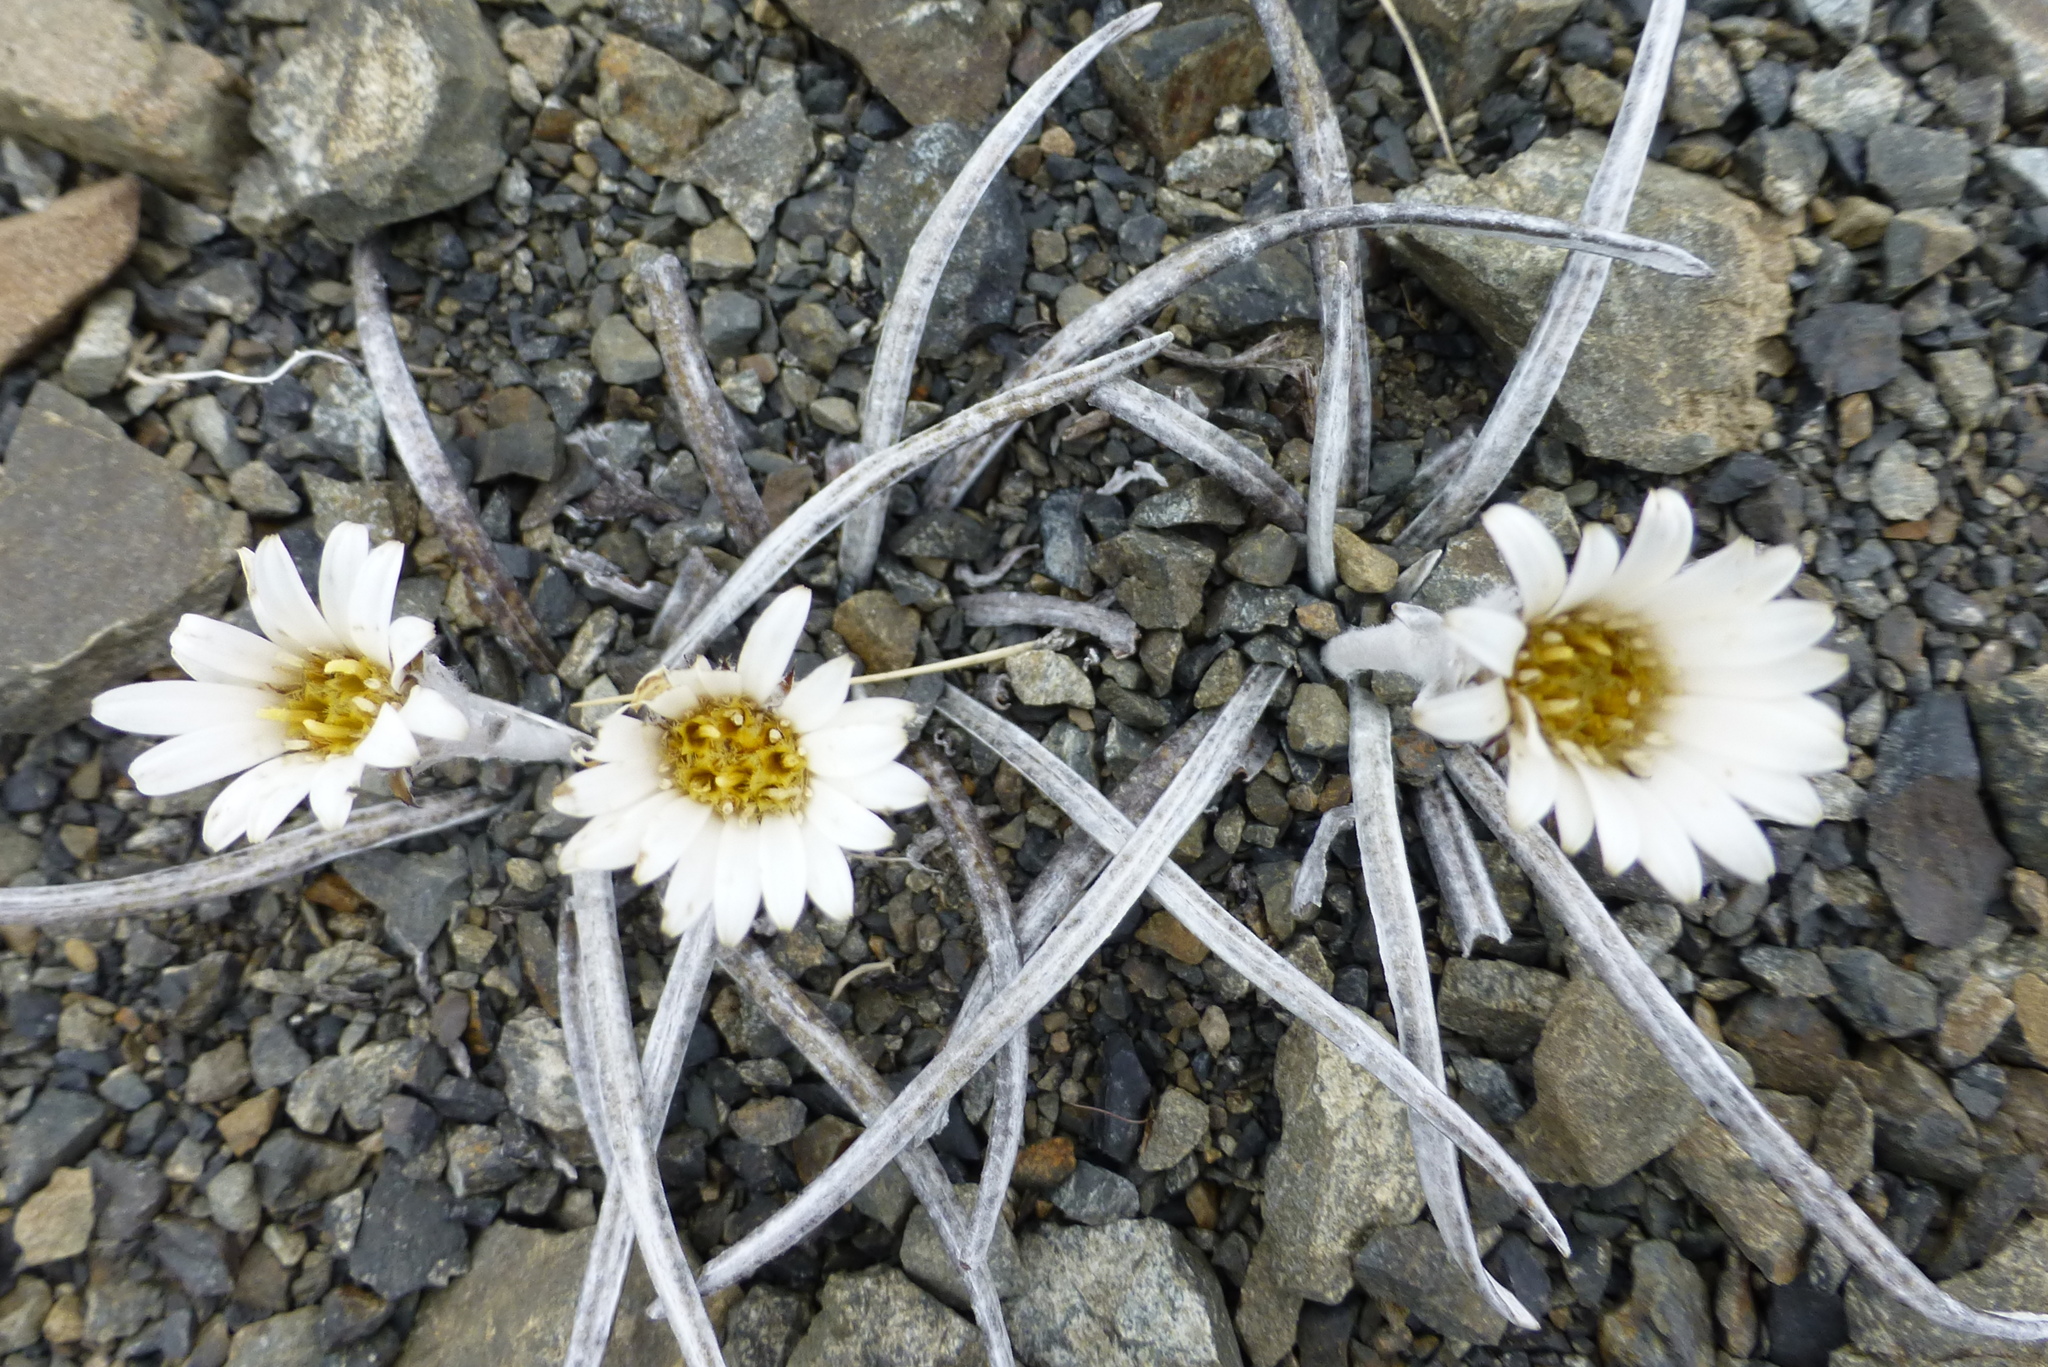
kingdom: Plantae
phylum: Tracheophyta
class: Magnoliopsida
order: Asterales
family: Asteraceae
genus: Celmisia
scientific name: Celmisia gracilenta
